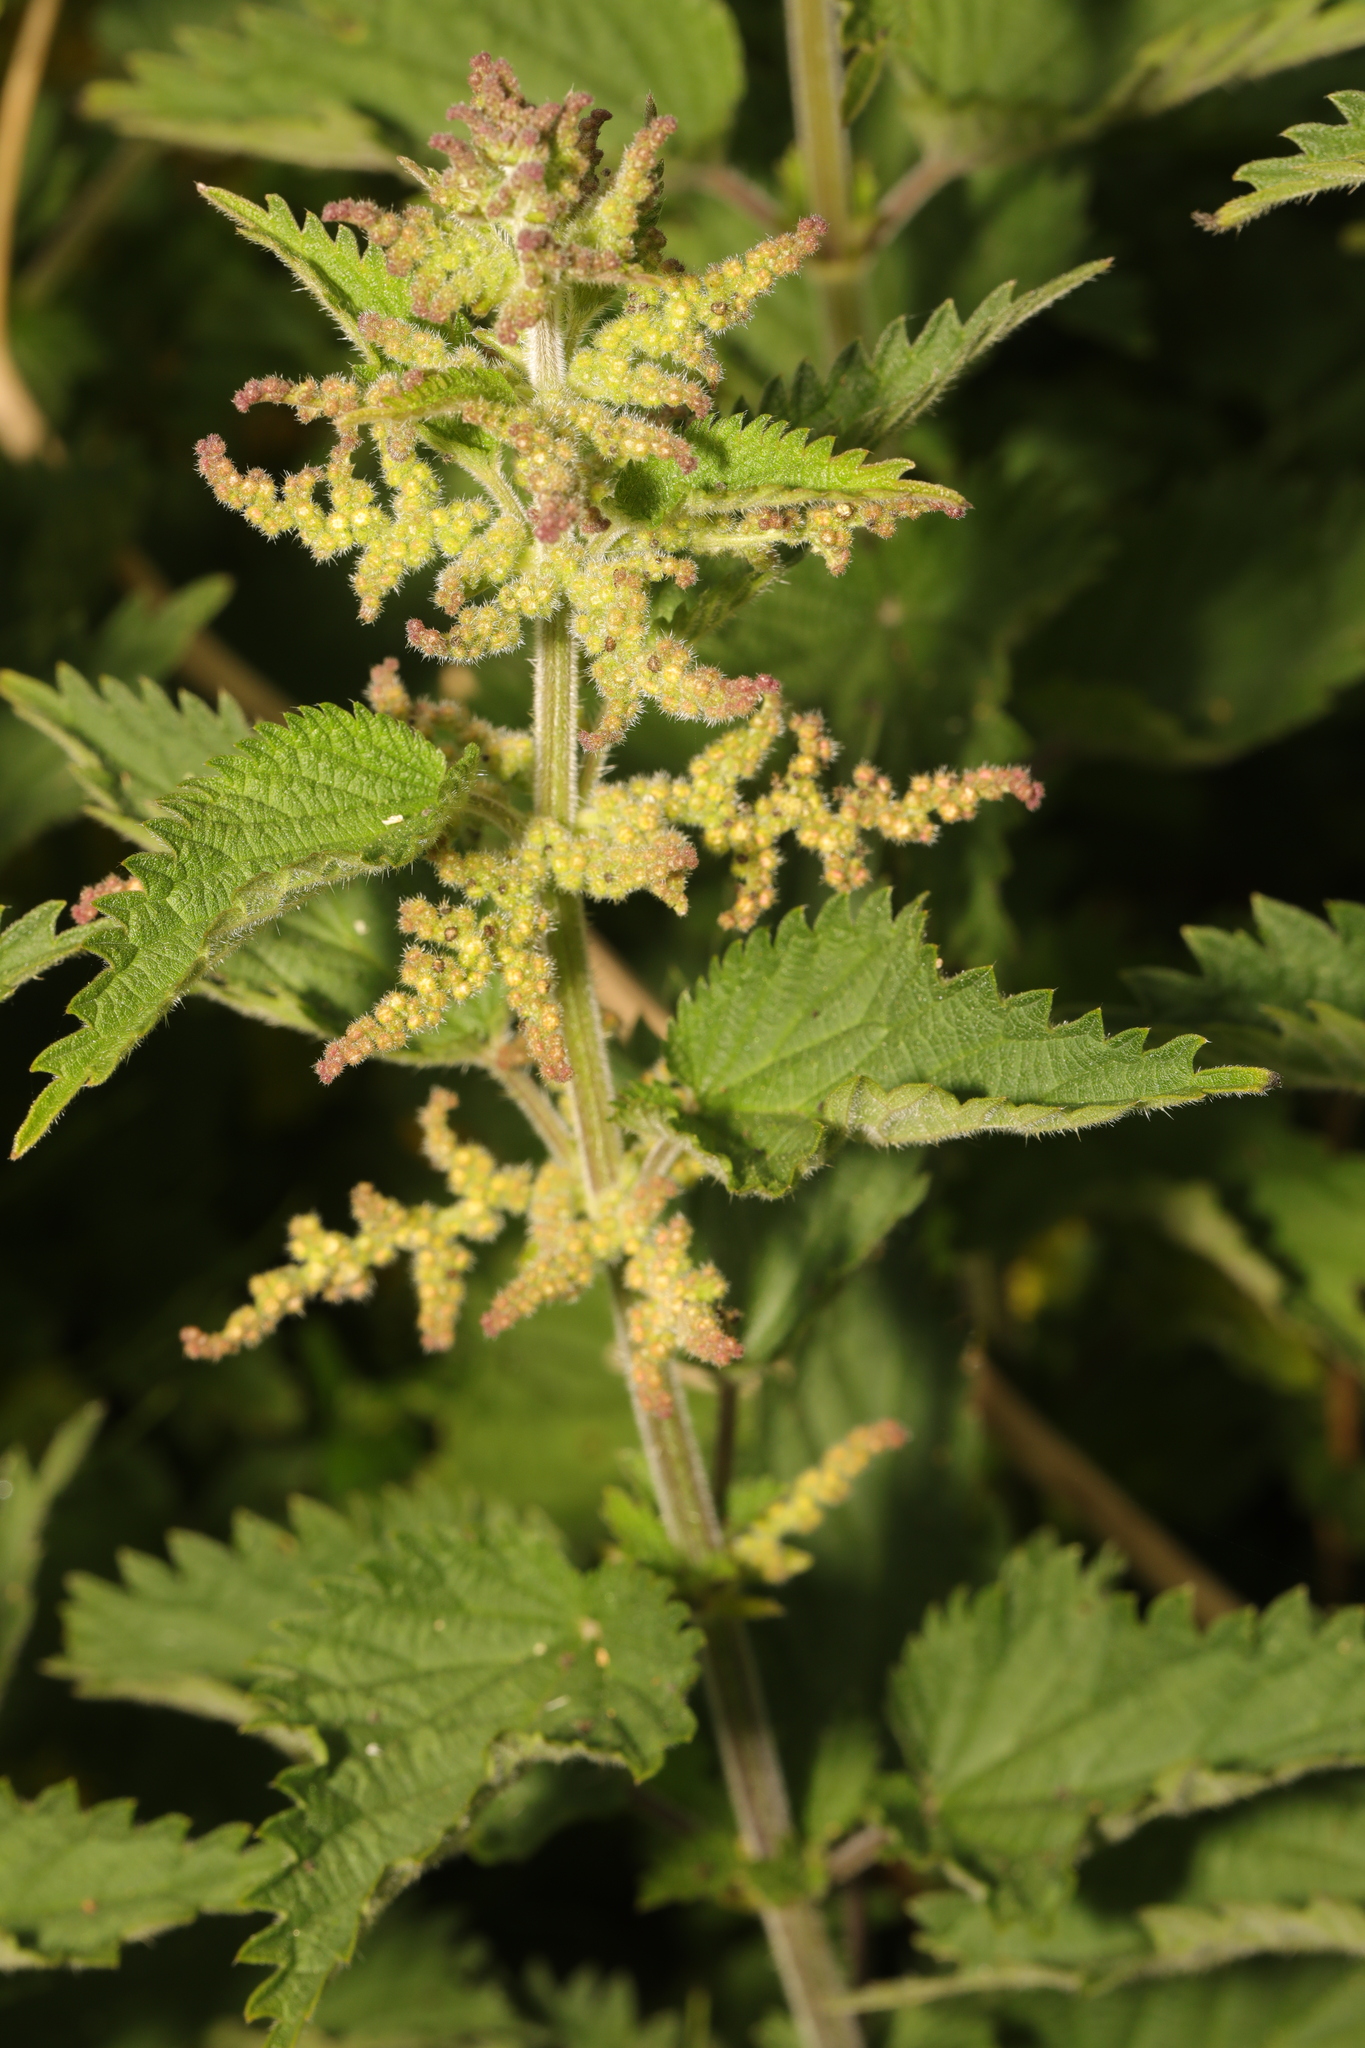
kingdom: Plantae
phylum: Tracheophyta
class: Magnoliopsida
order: Rosales
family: Urticaceae
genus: Urtica
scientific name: Urtica dioica
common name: Common nettle
